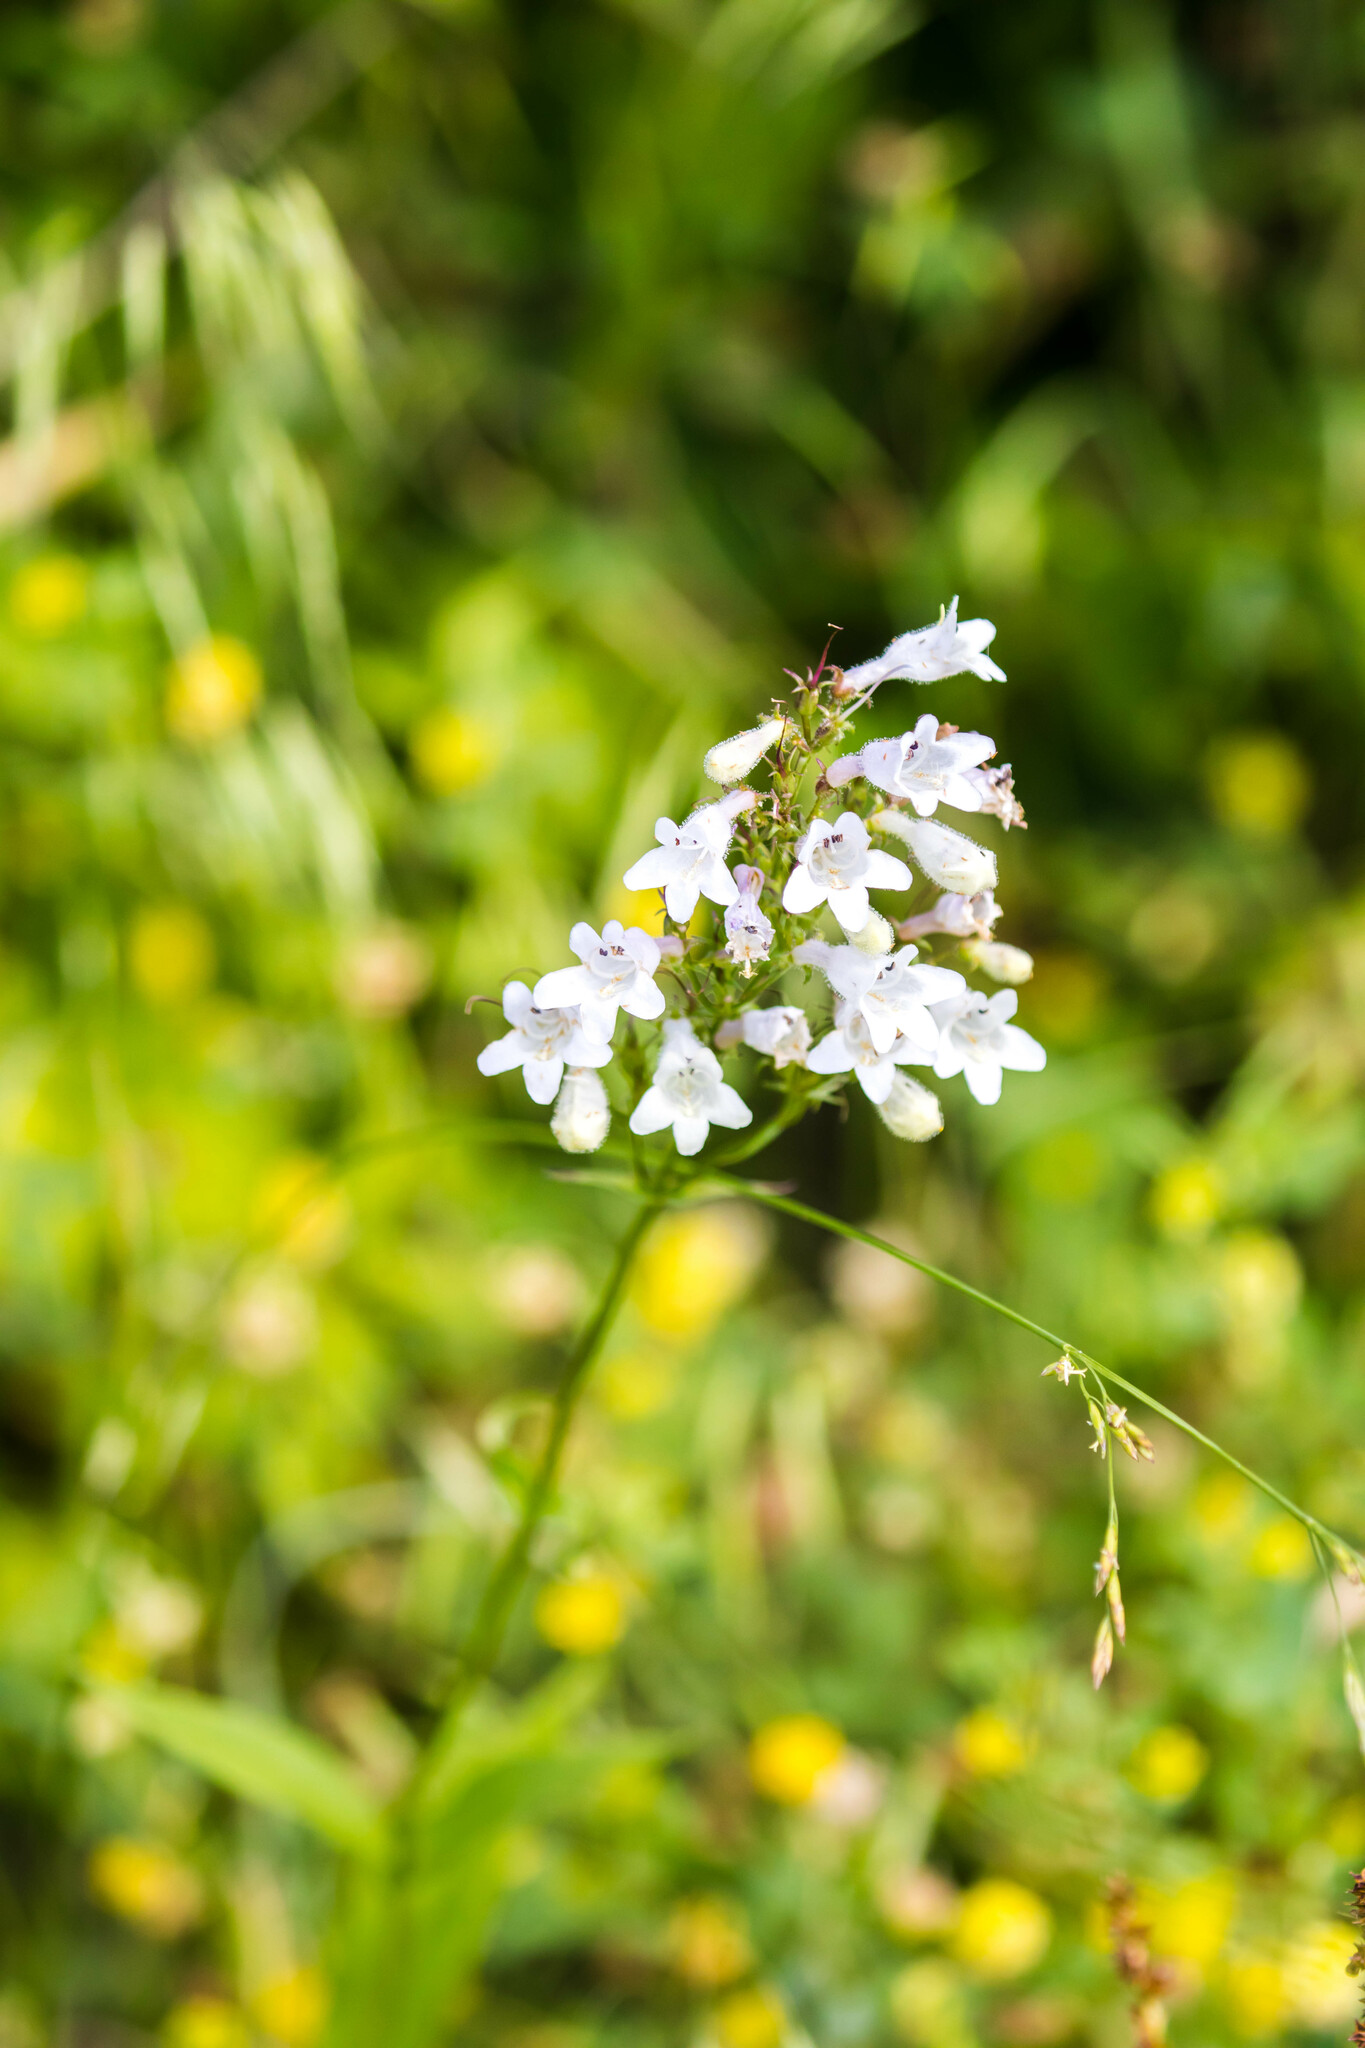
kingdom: Plantae
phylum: Tracheophyta
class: Magnoliopsida
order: Lamiales
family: Plantaginaceae
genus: Penstemon
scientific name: Penstemon digitalis
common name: Foxglove beardtongue
